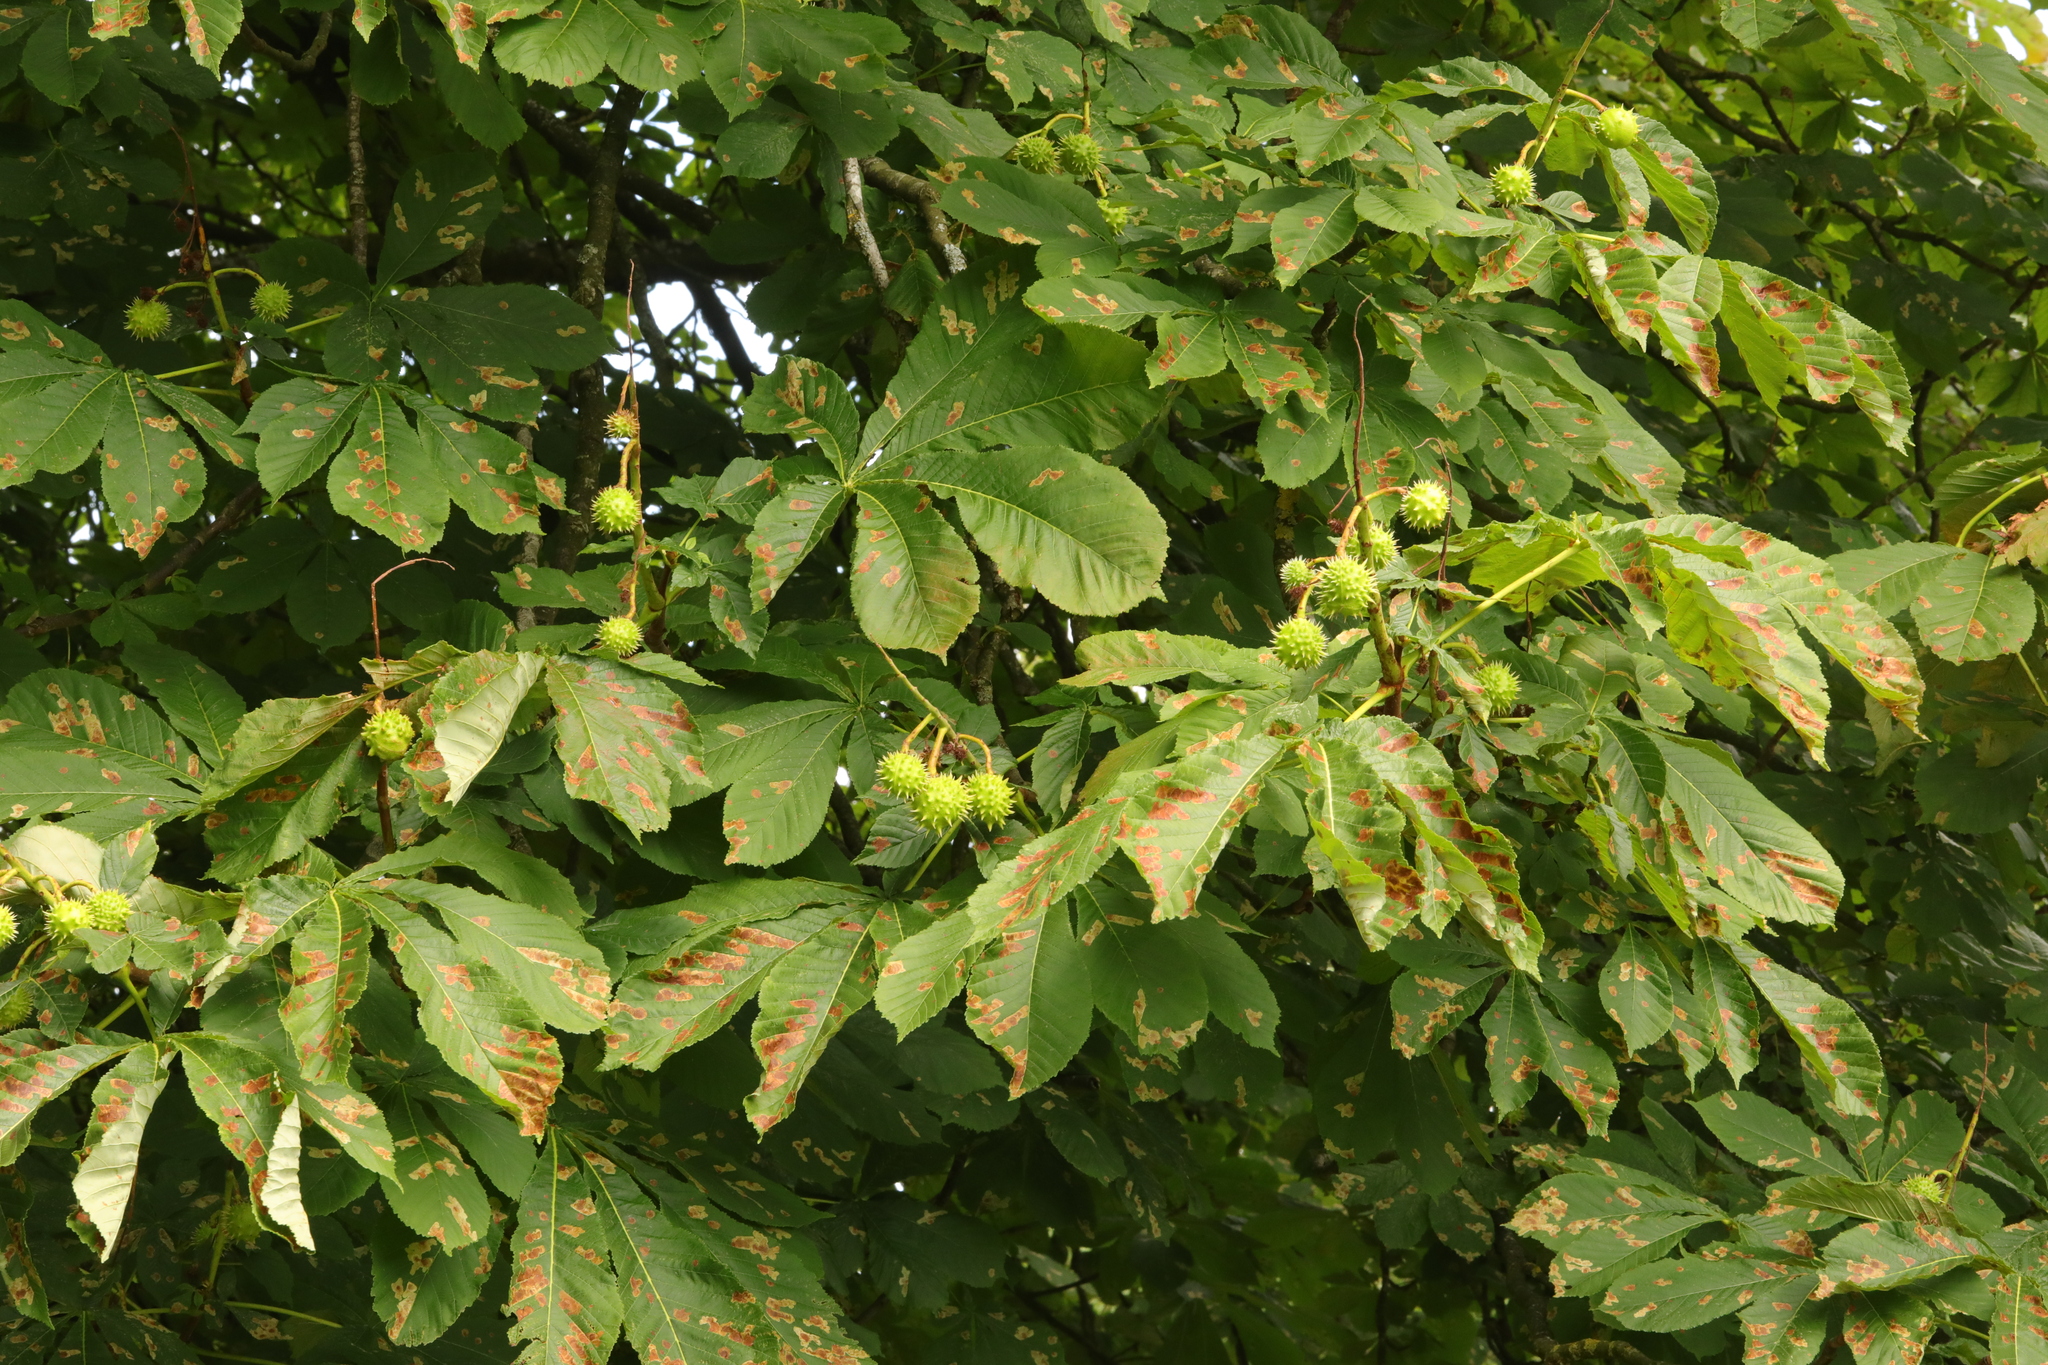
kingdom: Plantae
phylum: Tracheophyta
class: Magnoliopsida
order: Sapindales
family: Sapindaceae
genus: Aesculus
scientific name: Aesculus hippocastanum
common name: Horse-chestnut
